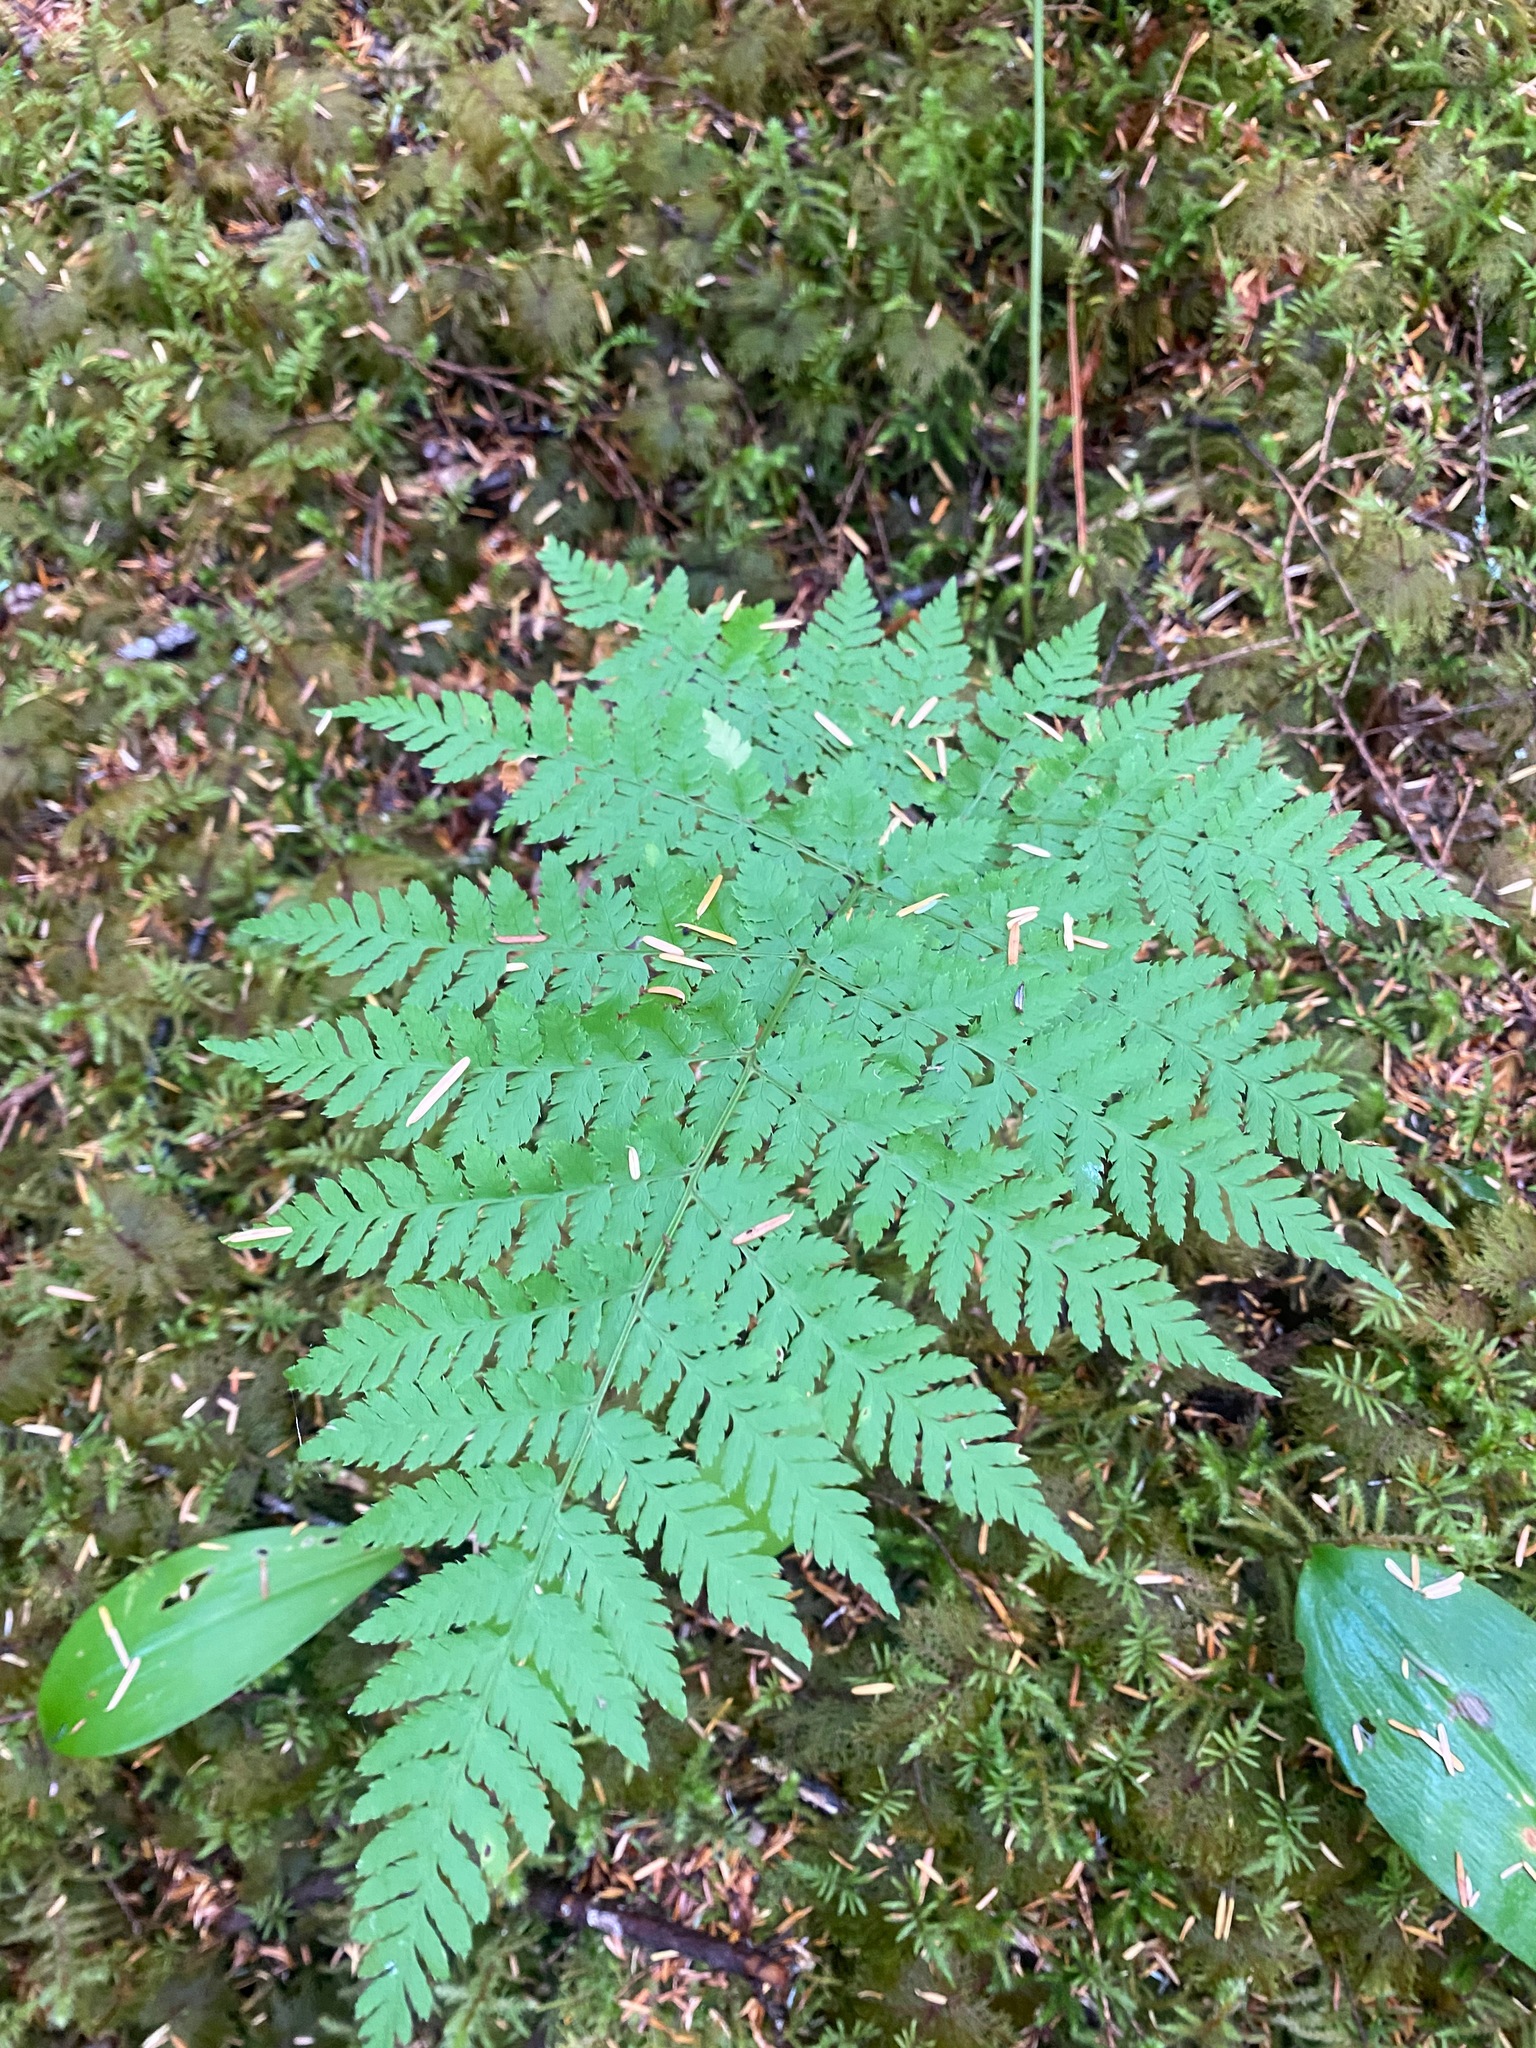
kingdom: Plantae
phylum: Tracheophyta
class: Polypodiopsida
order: Polypodiales
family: Dryopteridaceae
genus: Dryopteris
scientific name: Dryopteris expansa
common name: Northern buckler fern
